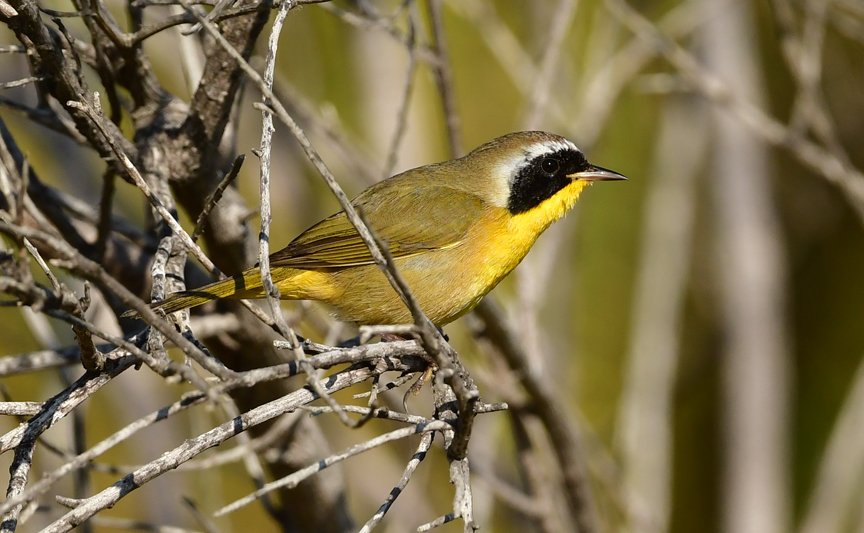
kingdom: Animalia
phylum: Chordata
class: Aves
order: Passeriformes
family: Parulidae
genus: Geothlypis
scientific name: Geothlypis trichas
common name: Common yellowthroat
